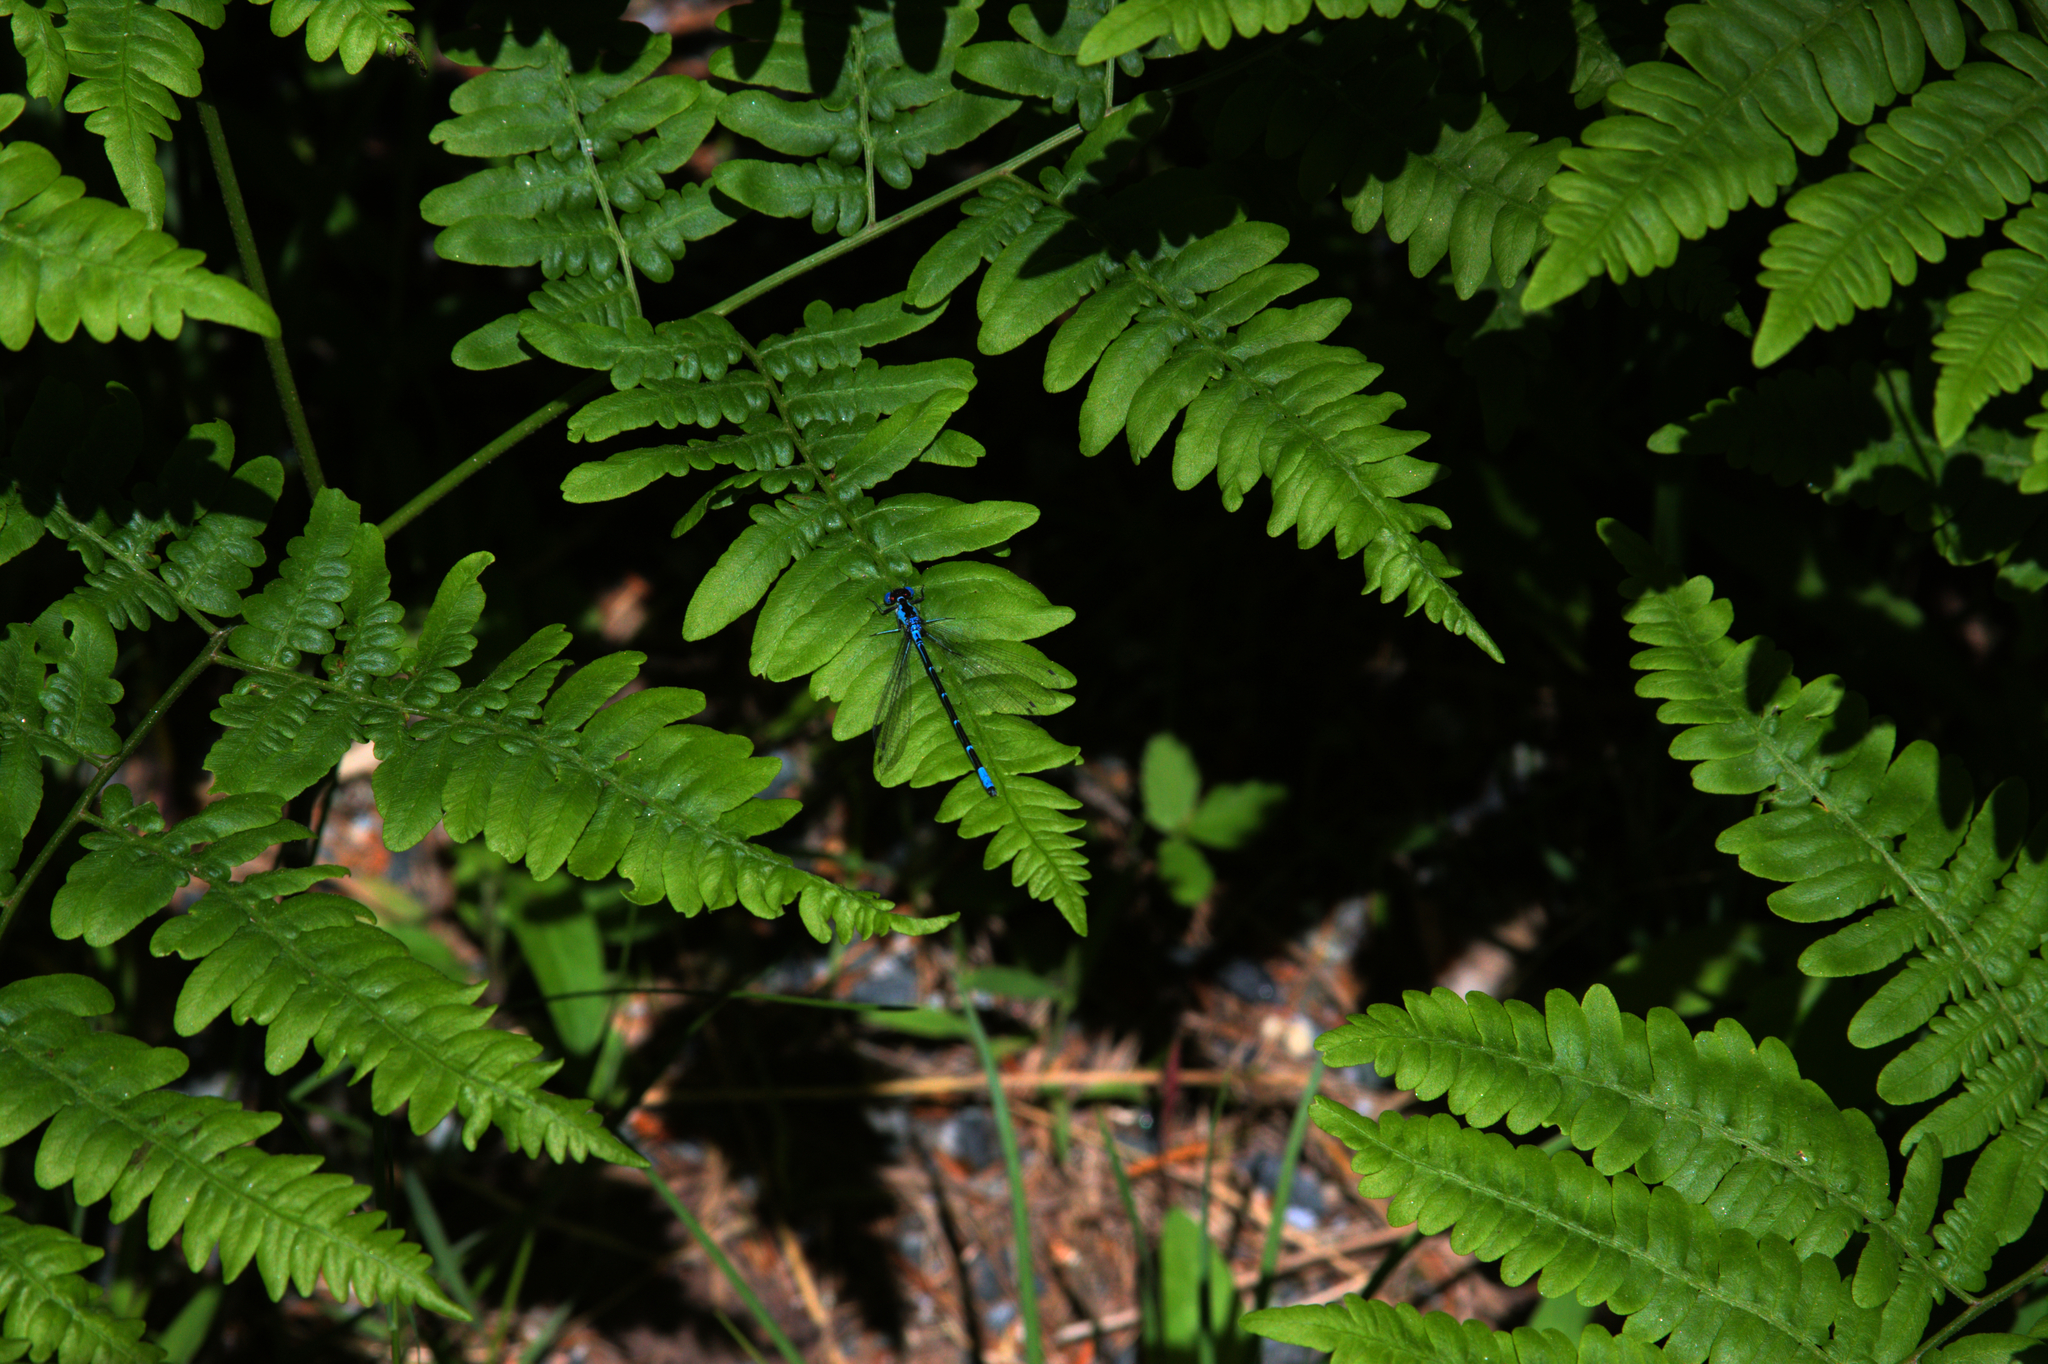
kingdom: Plantae
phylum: Tracheophyta
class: Polypodiopsida
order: Polypodiales
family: Dennstaedtiaceae
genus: Pteridium
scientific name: Pteridium aquilinum
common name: Bracken
